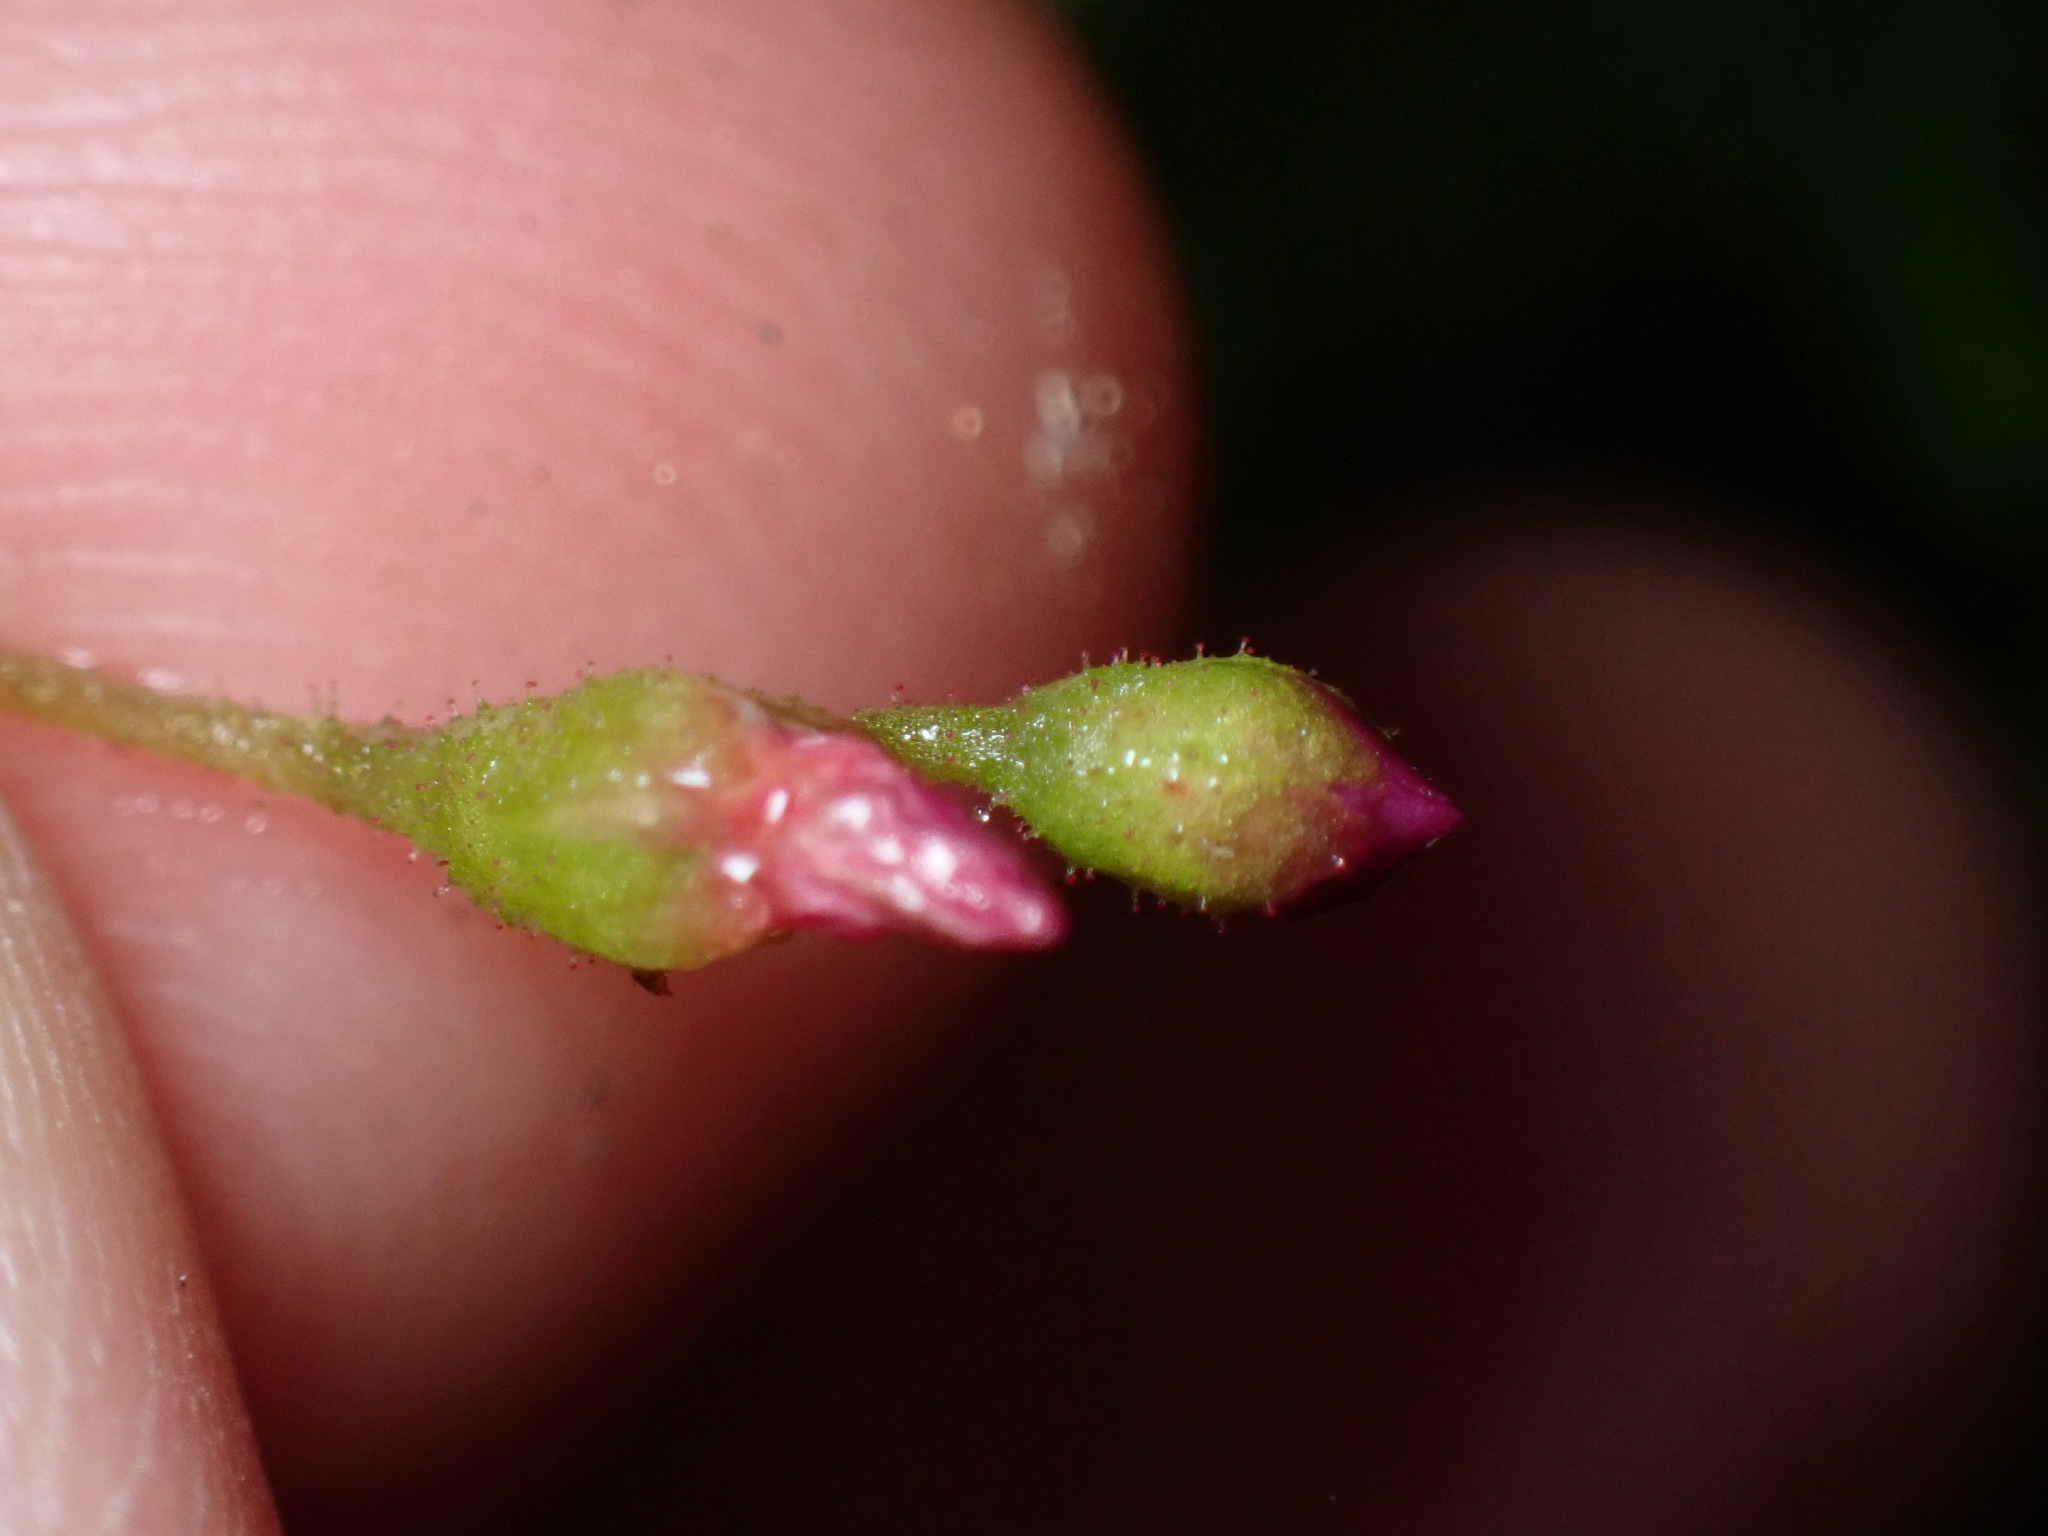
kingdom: Plantae
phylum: Tracheophyta
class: Magnoliopsida
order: Caryophyllales
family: Droseraceae
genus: Drosera
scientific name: Drosera spatulata
